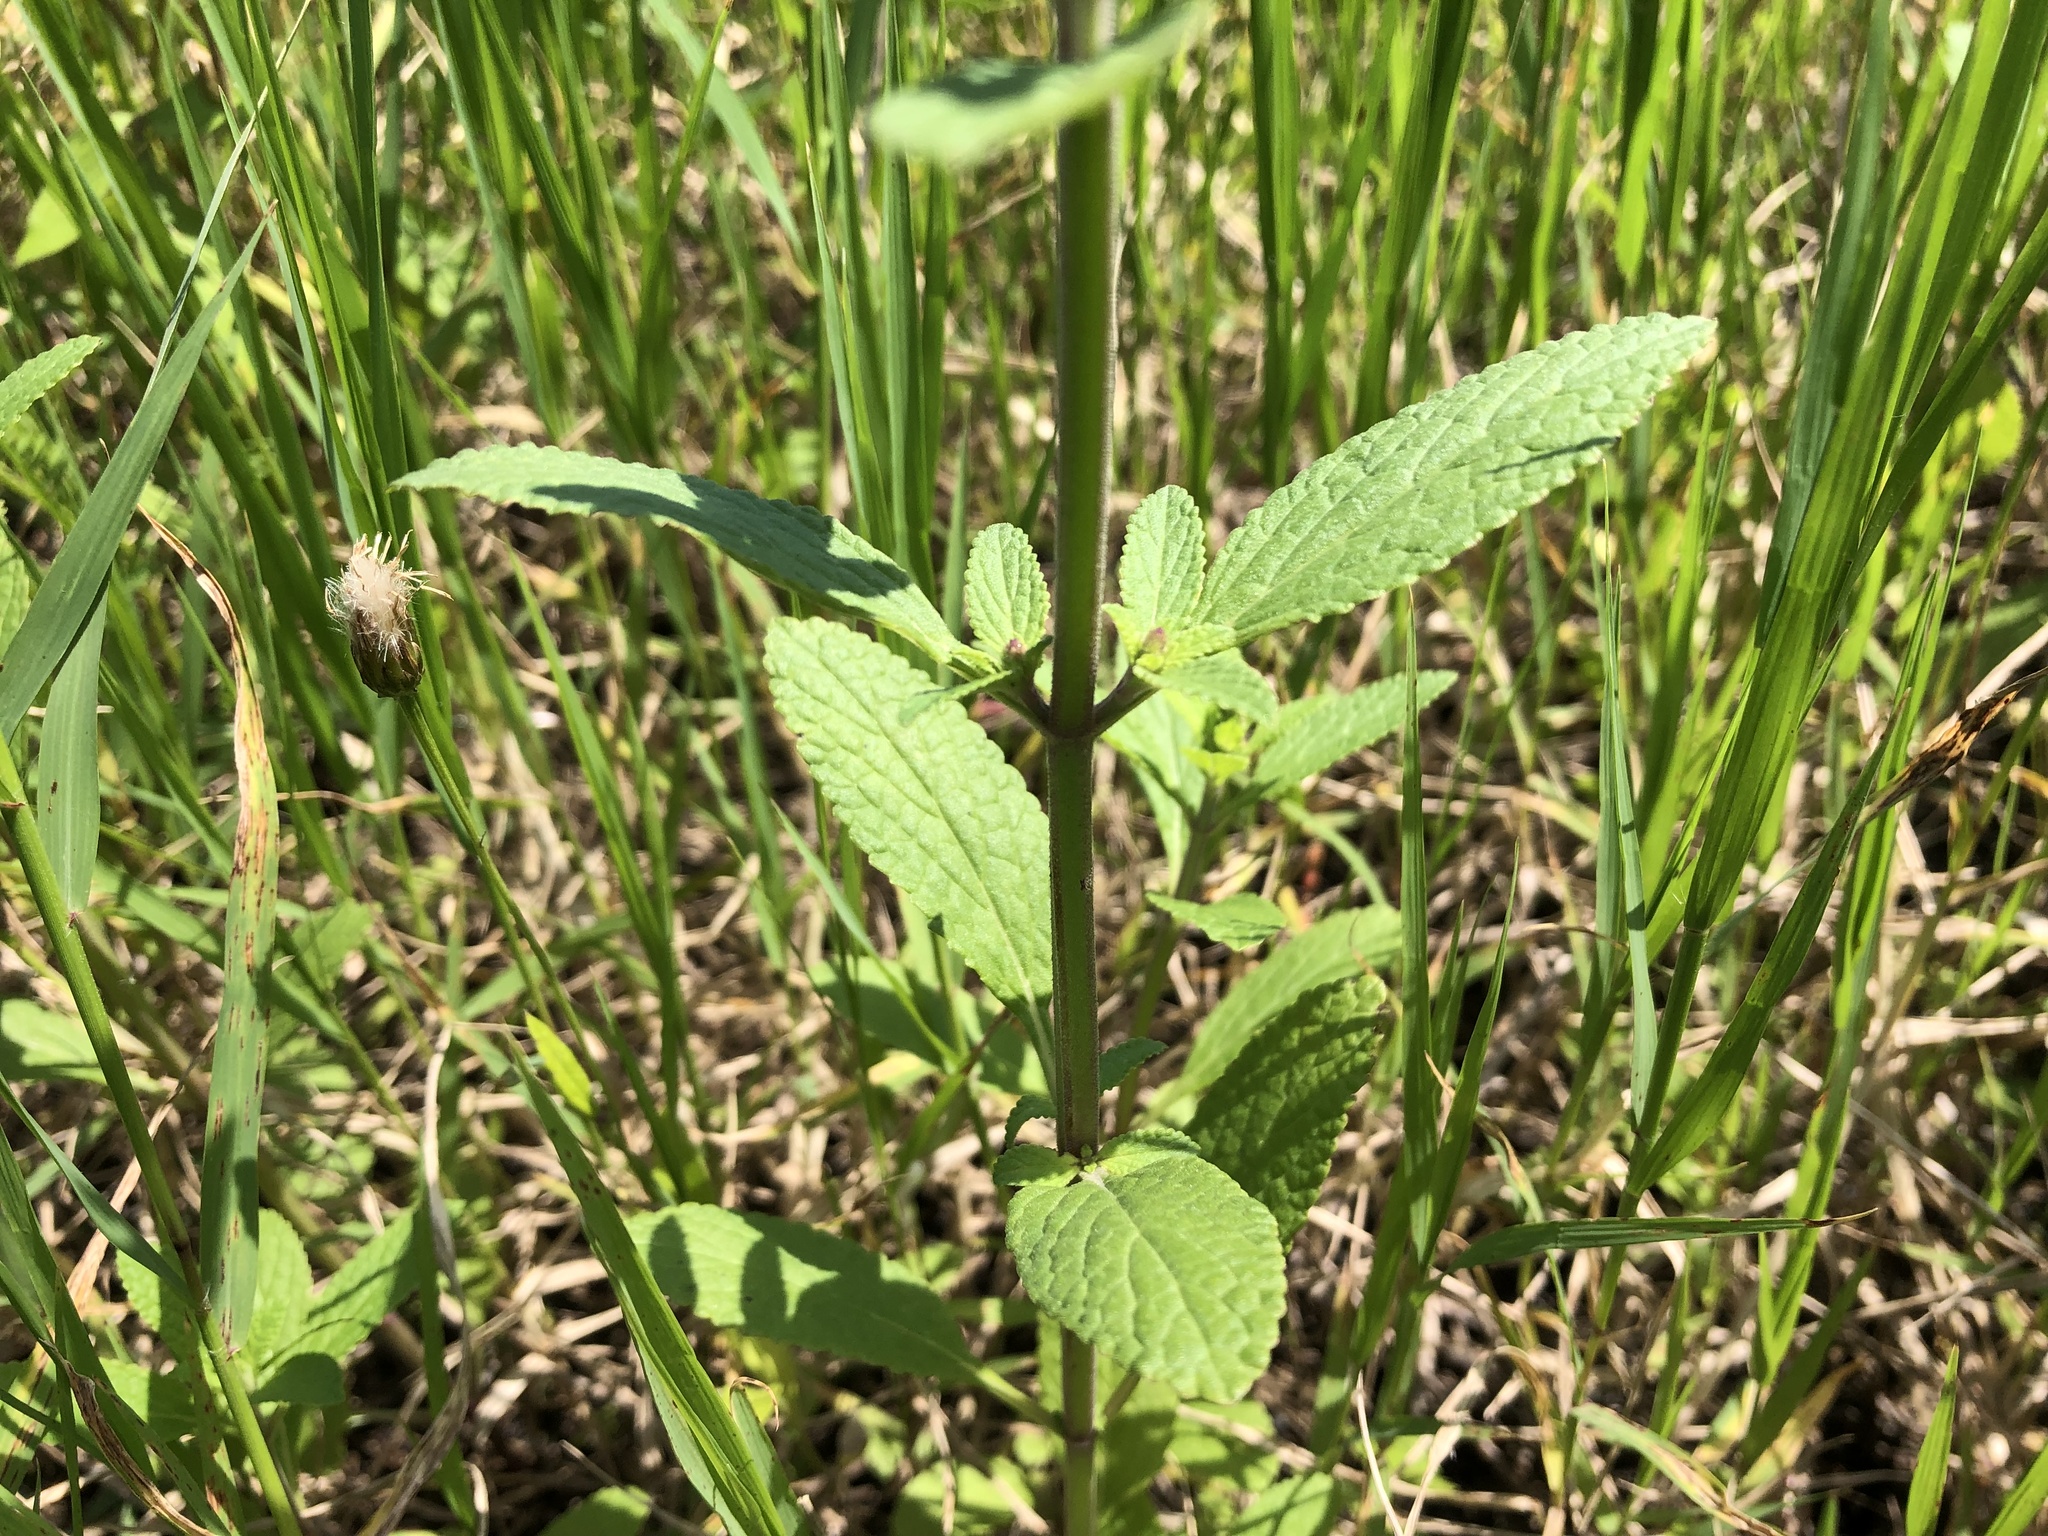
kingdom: Plantae
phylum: Tracheophyta
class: Magnoliopsida
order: Lamiales
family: Lamiaceae
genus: Salvia
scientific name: Salvia plebeia
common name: Australian sage
